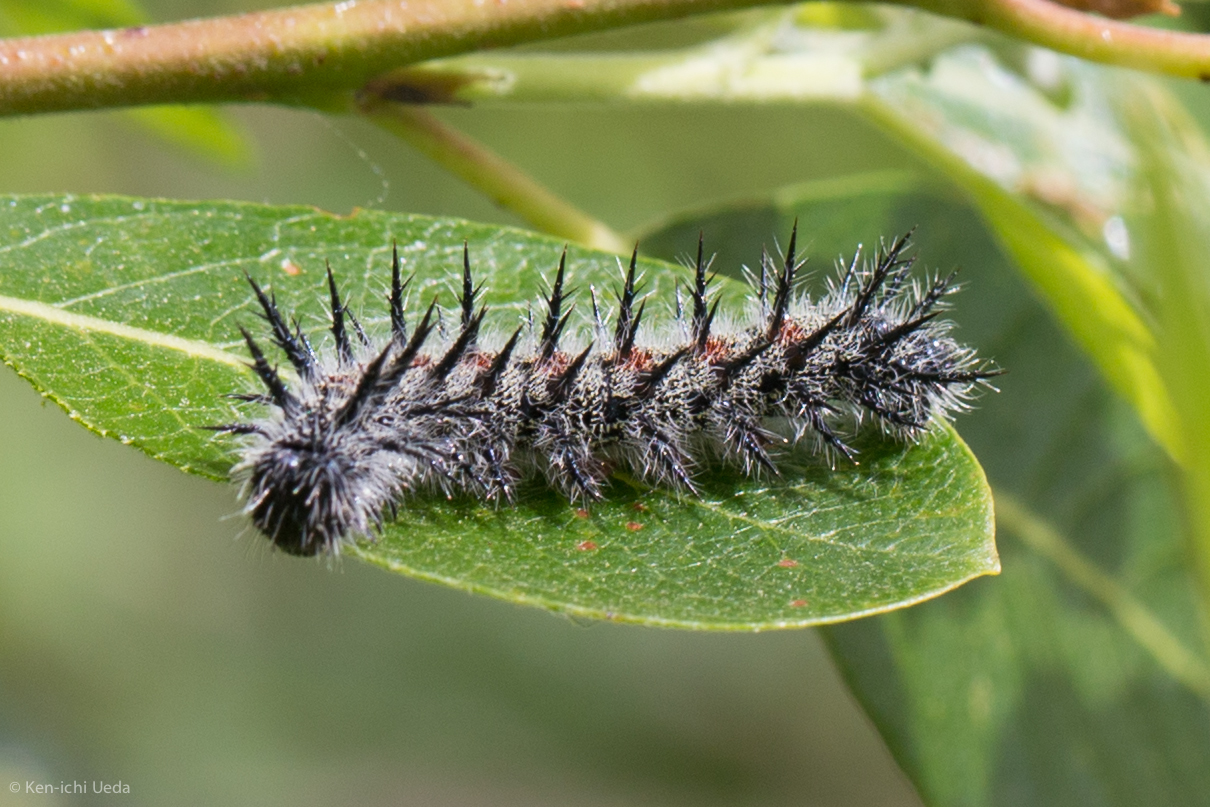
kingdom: Animalia
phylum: Arthropoda
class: Insecta
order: Lepidoptera
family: Nymphalidae
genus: Nymphalis
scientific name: Nymphalis antiopa
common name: Camberwell beauty
